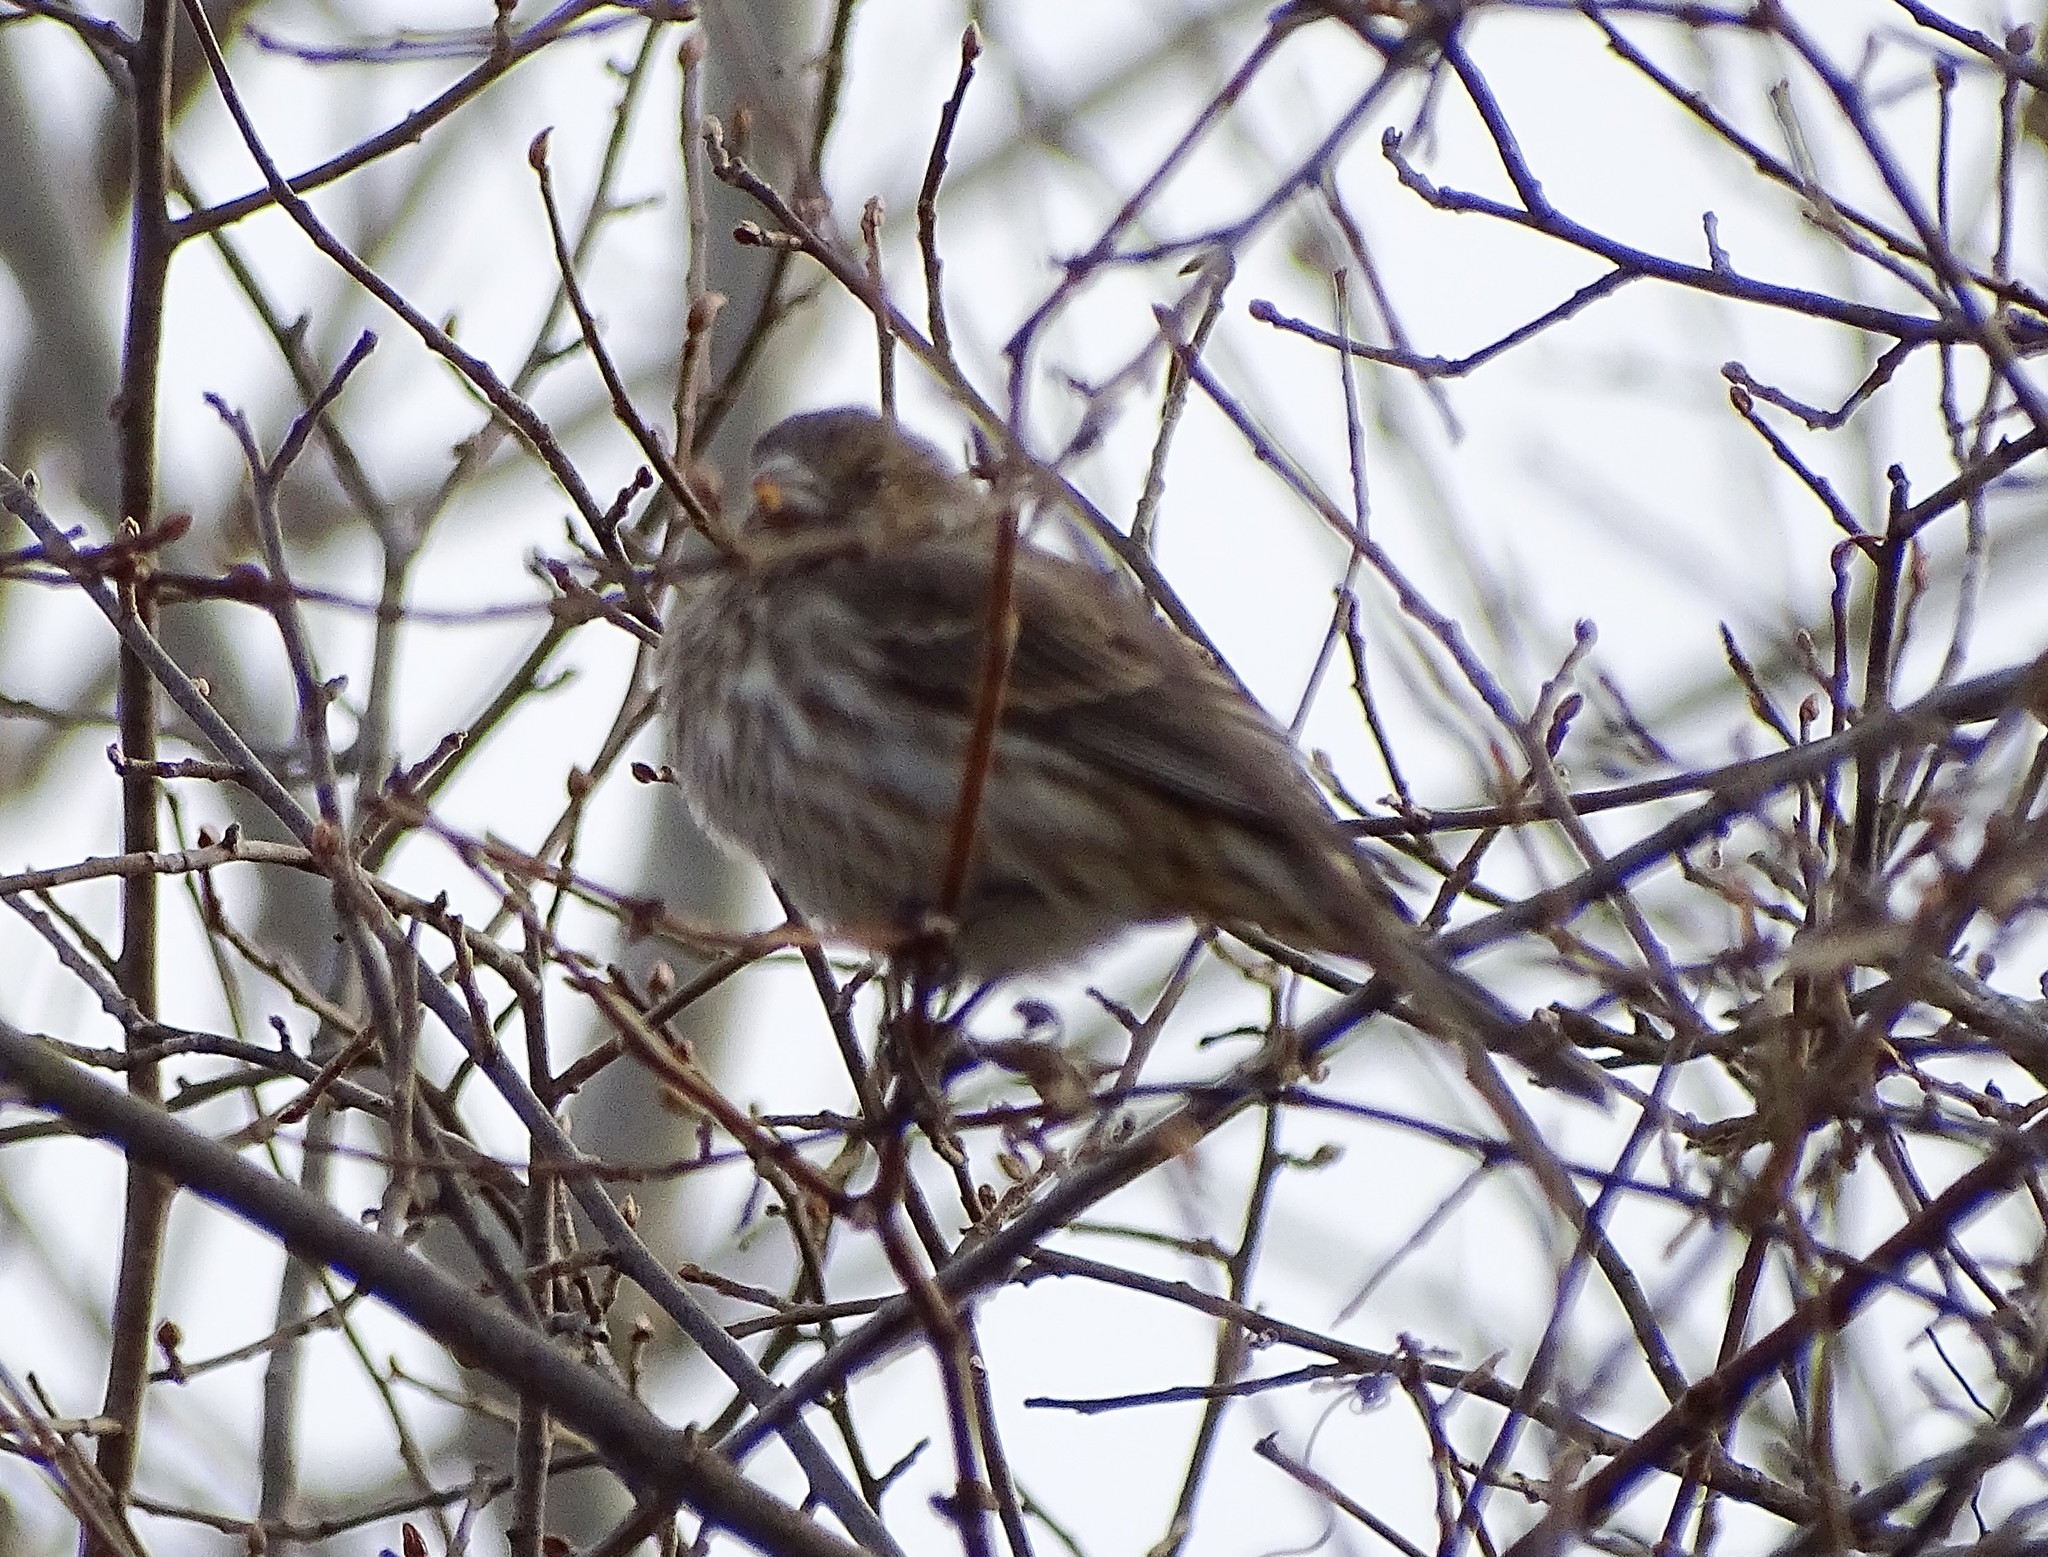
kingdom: Animalia
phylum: Chordata
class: Aves
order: Passeriformes
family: Fringillidae
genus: Haemorhous
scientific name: Haemorhous mexicanus
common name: House finch
